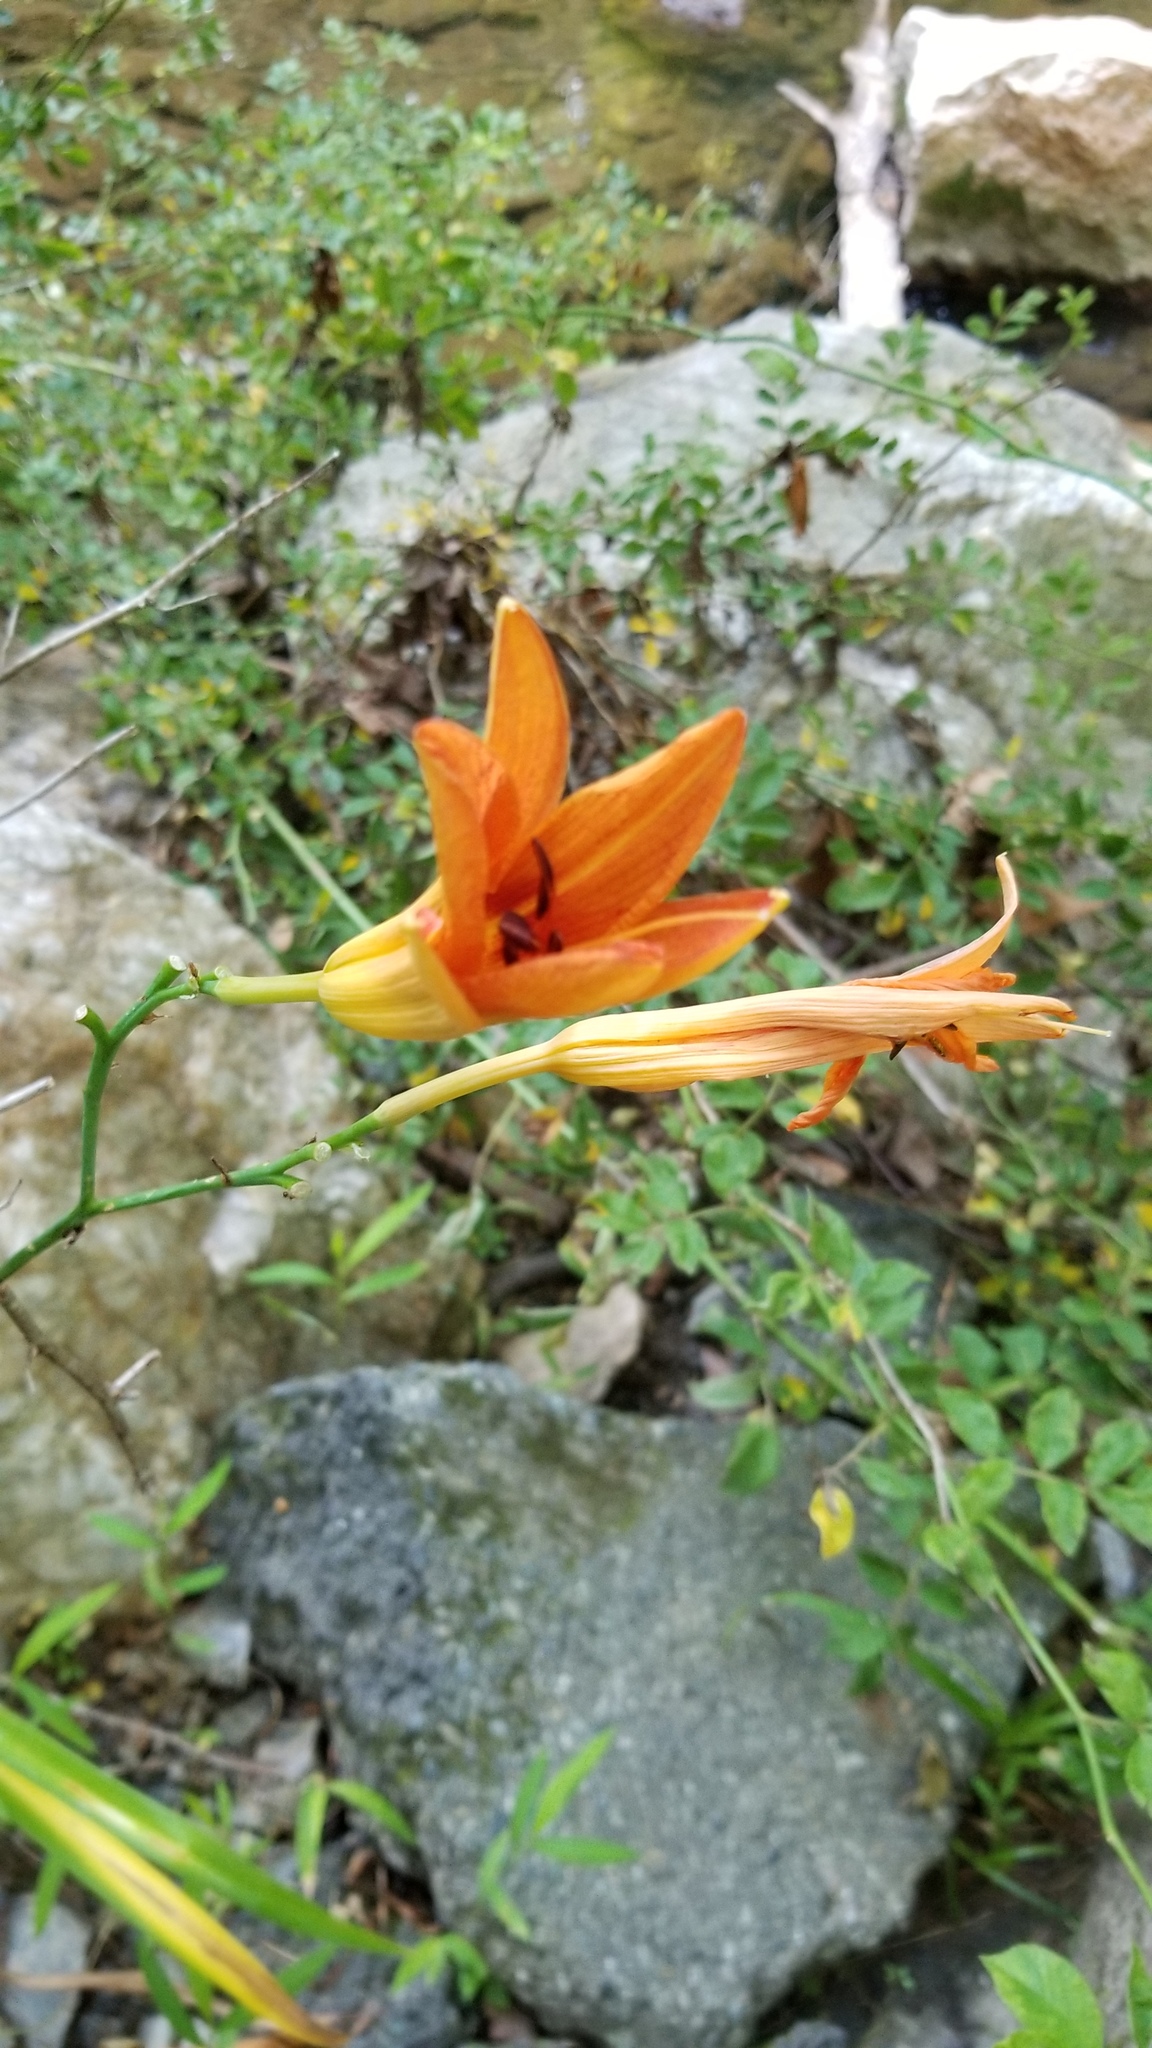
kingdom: Plantae
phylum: Tracheophyta
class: Liliopsida
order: Asparagales
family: Asphodelaceae
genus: Hemerocallis
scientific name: Hemerocallis fulva
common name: Orange day-lily
